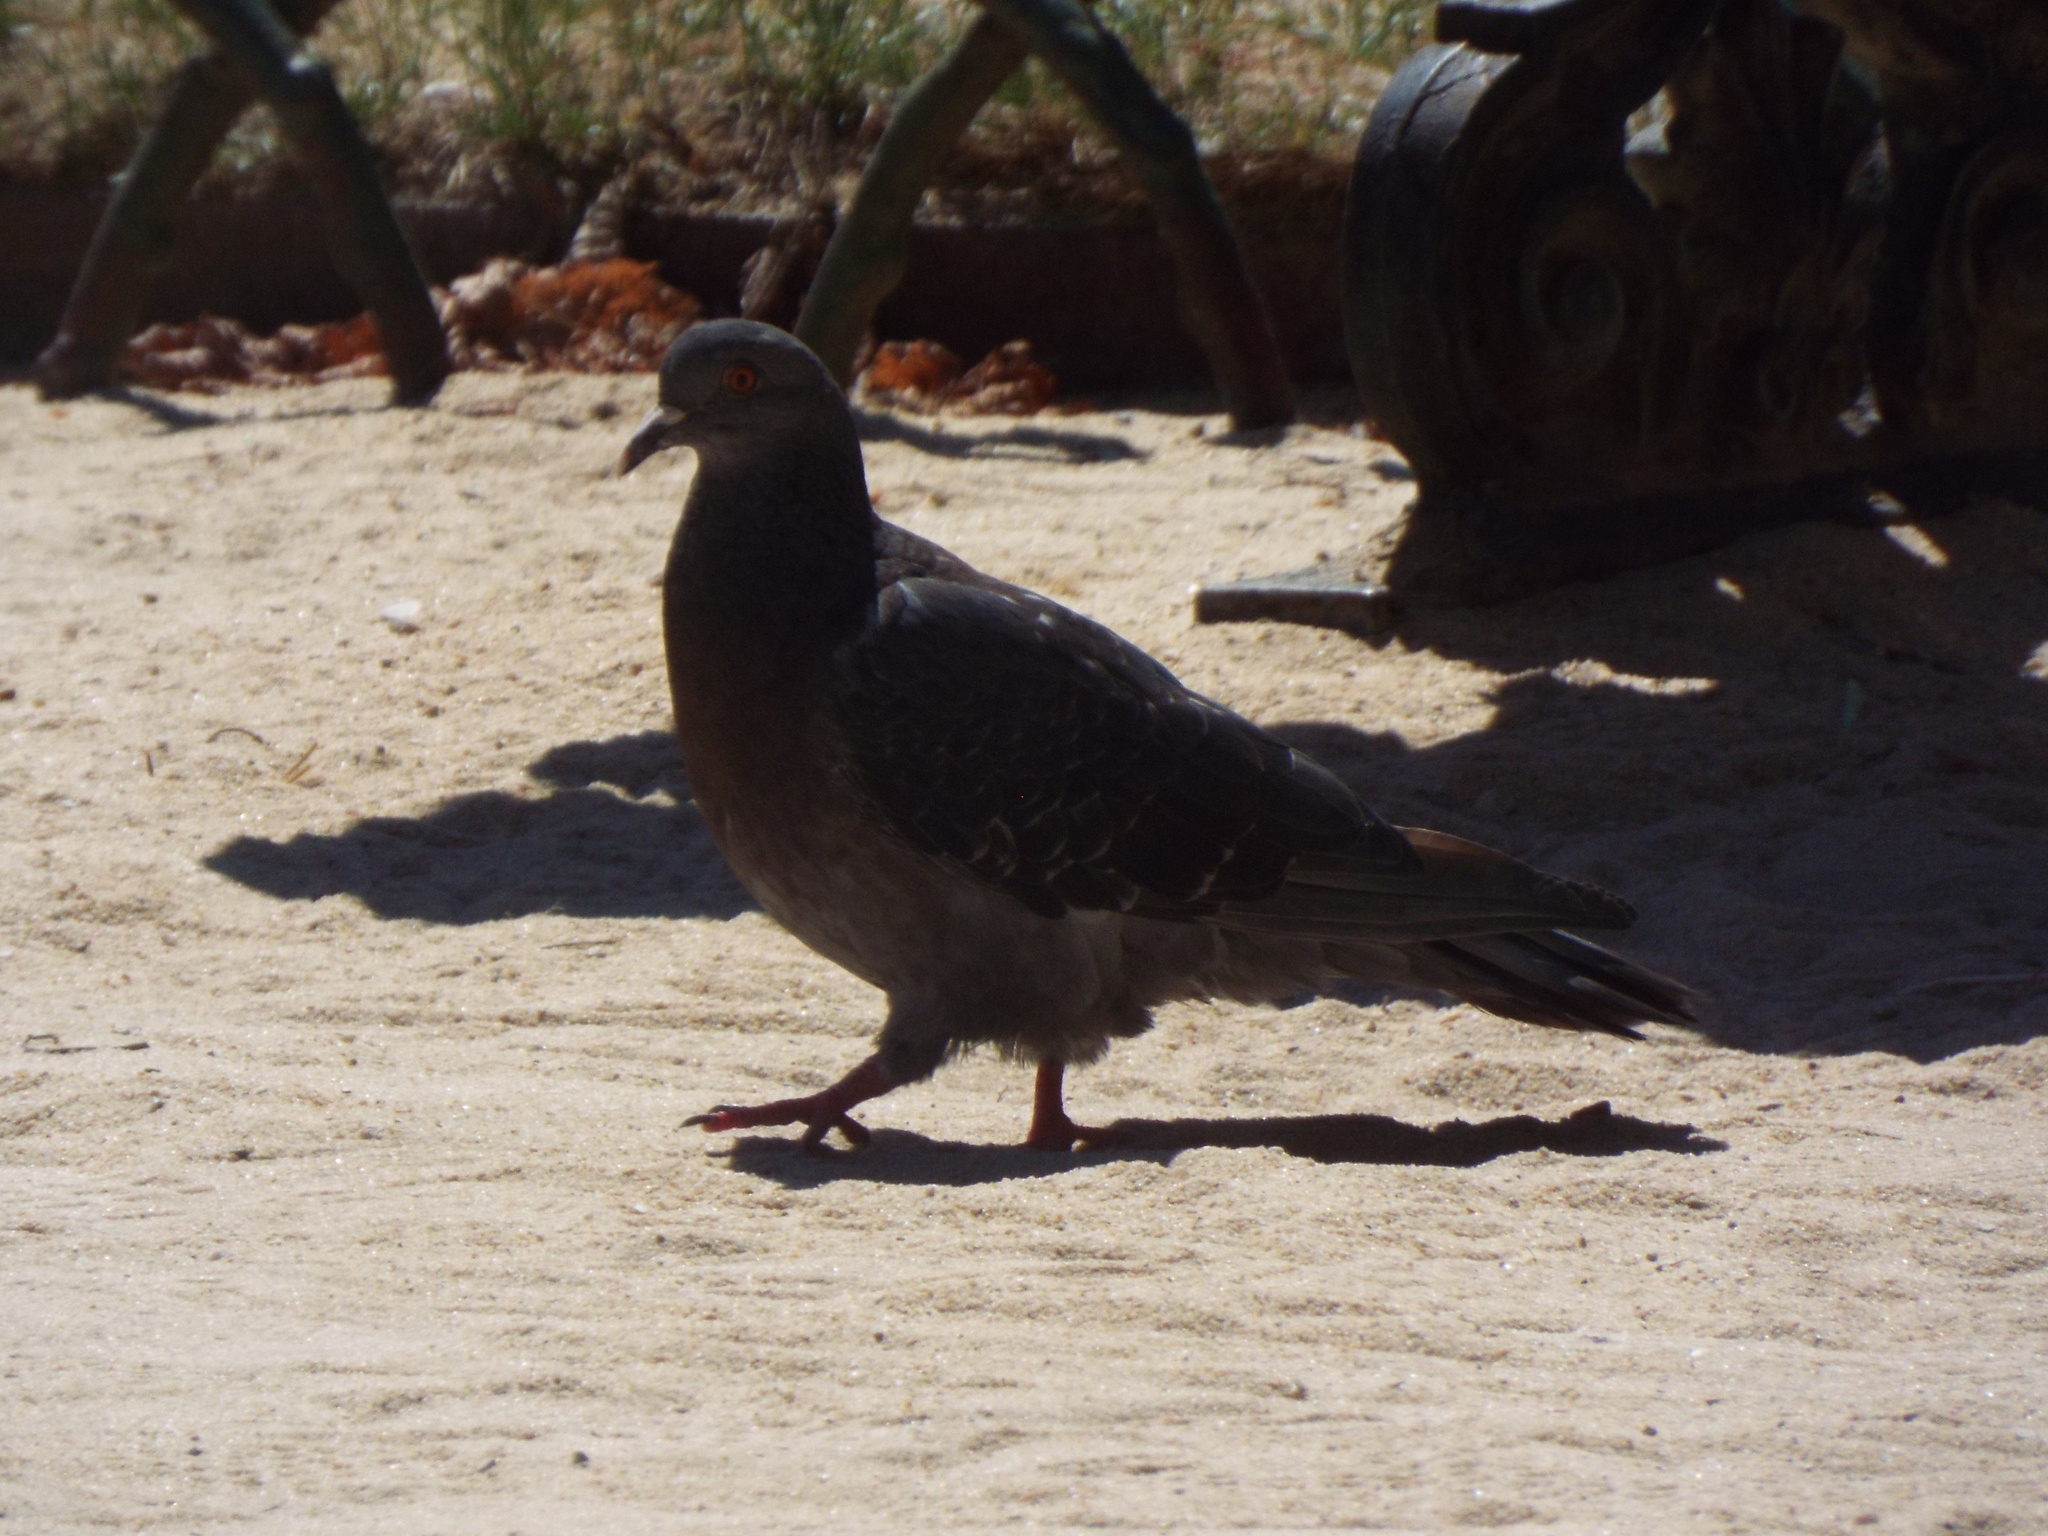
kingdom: Animalia
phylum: Chordata
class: Aves
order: Columbiformes
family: Columbidae
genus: Columba
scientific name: Columba livia
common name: Rock pigeon
